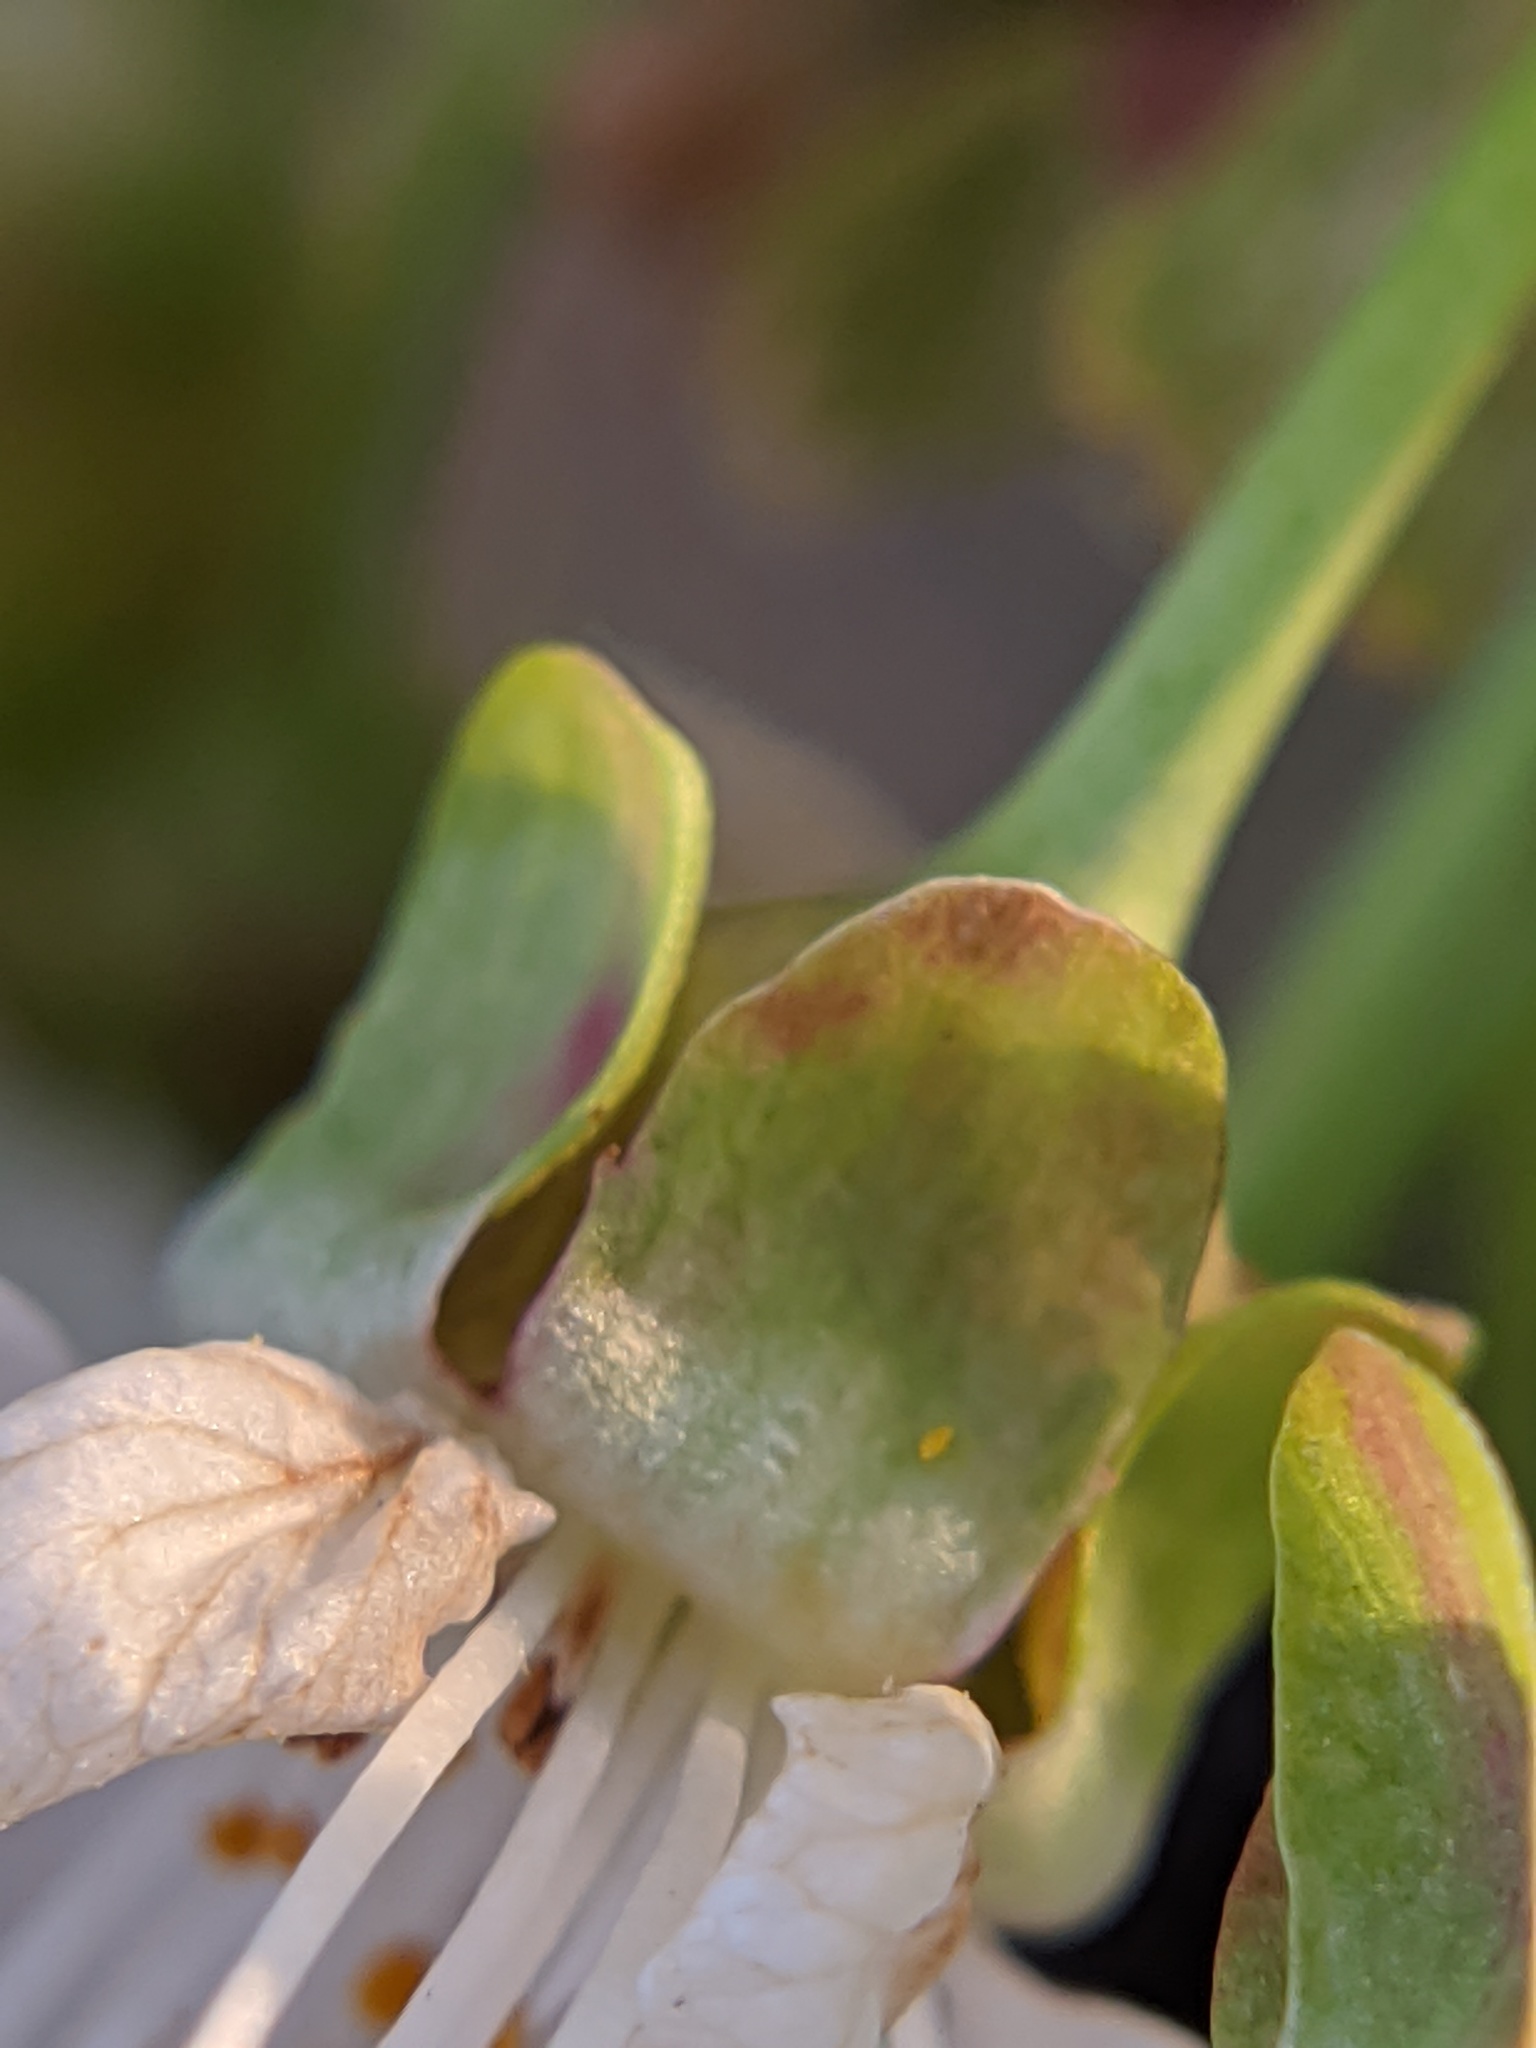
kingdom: Plantae
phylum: Tracheophyta
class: Magnoliopsida
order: Rosales
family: Rosaceae
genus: Prunus
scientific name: Prunus avium
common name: Sweet cherry
